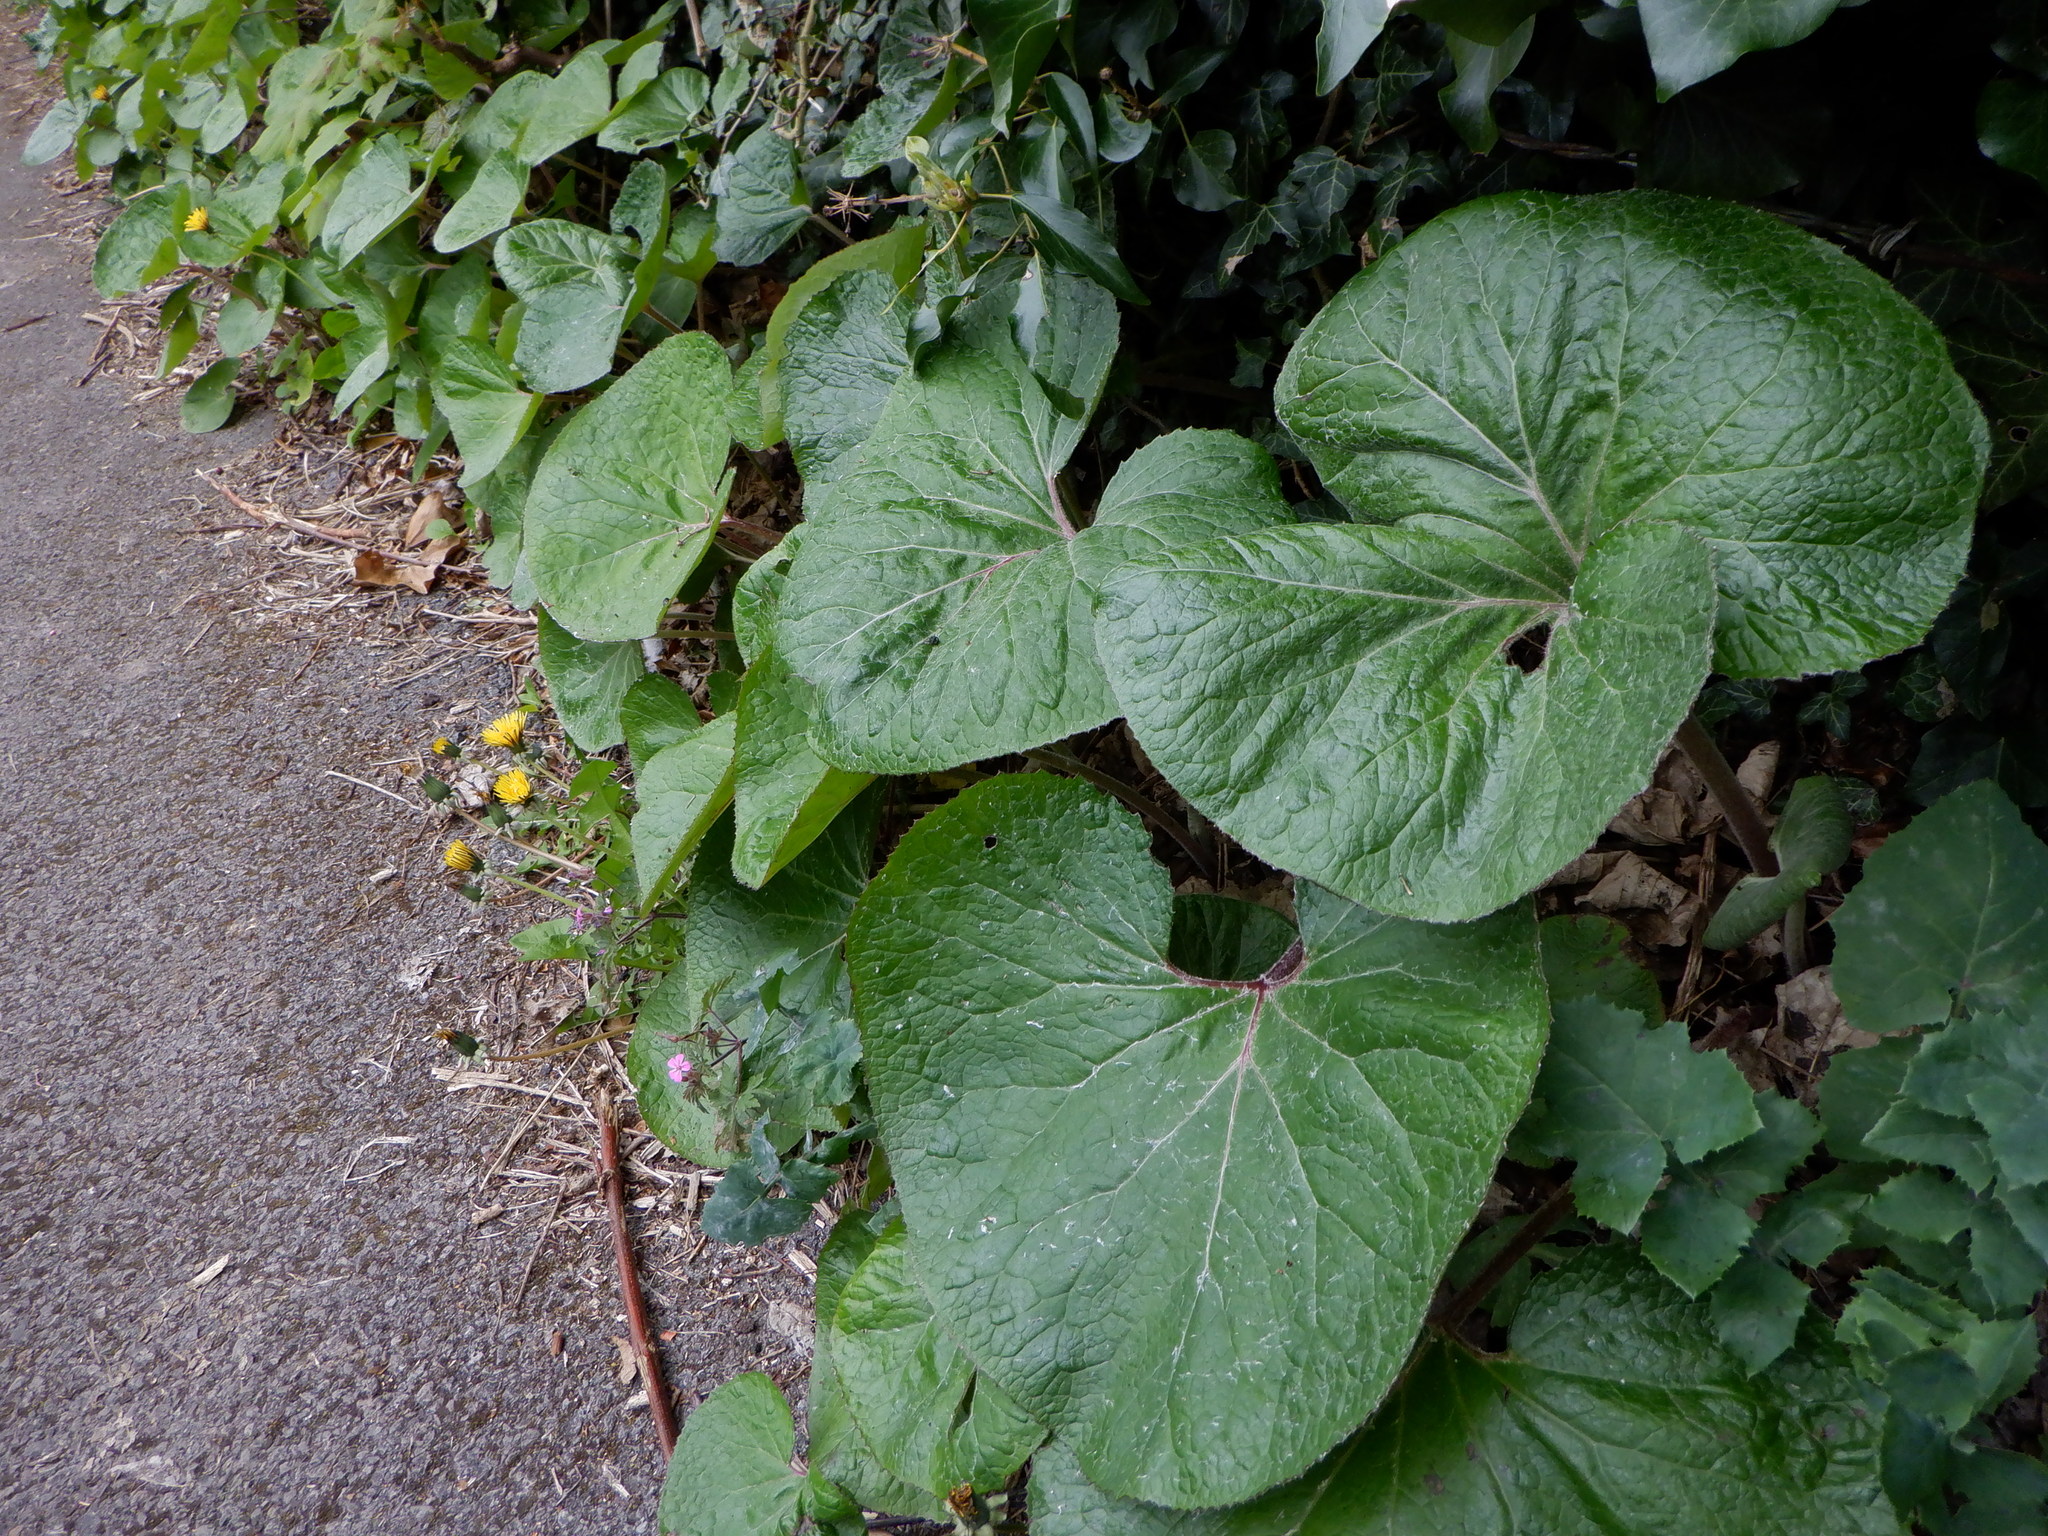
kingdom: Plantae
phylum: Tracheophyta
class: Magnoliopsida
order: Asterales
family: Asteraceae
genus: Petasites
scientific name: Petasites pyrenaicus
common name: Winter heliotrope
